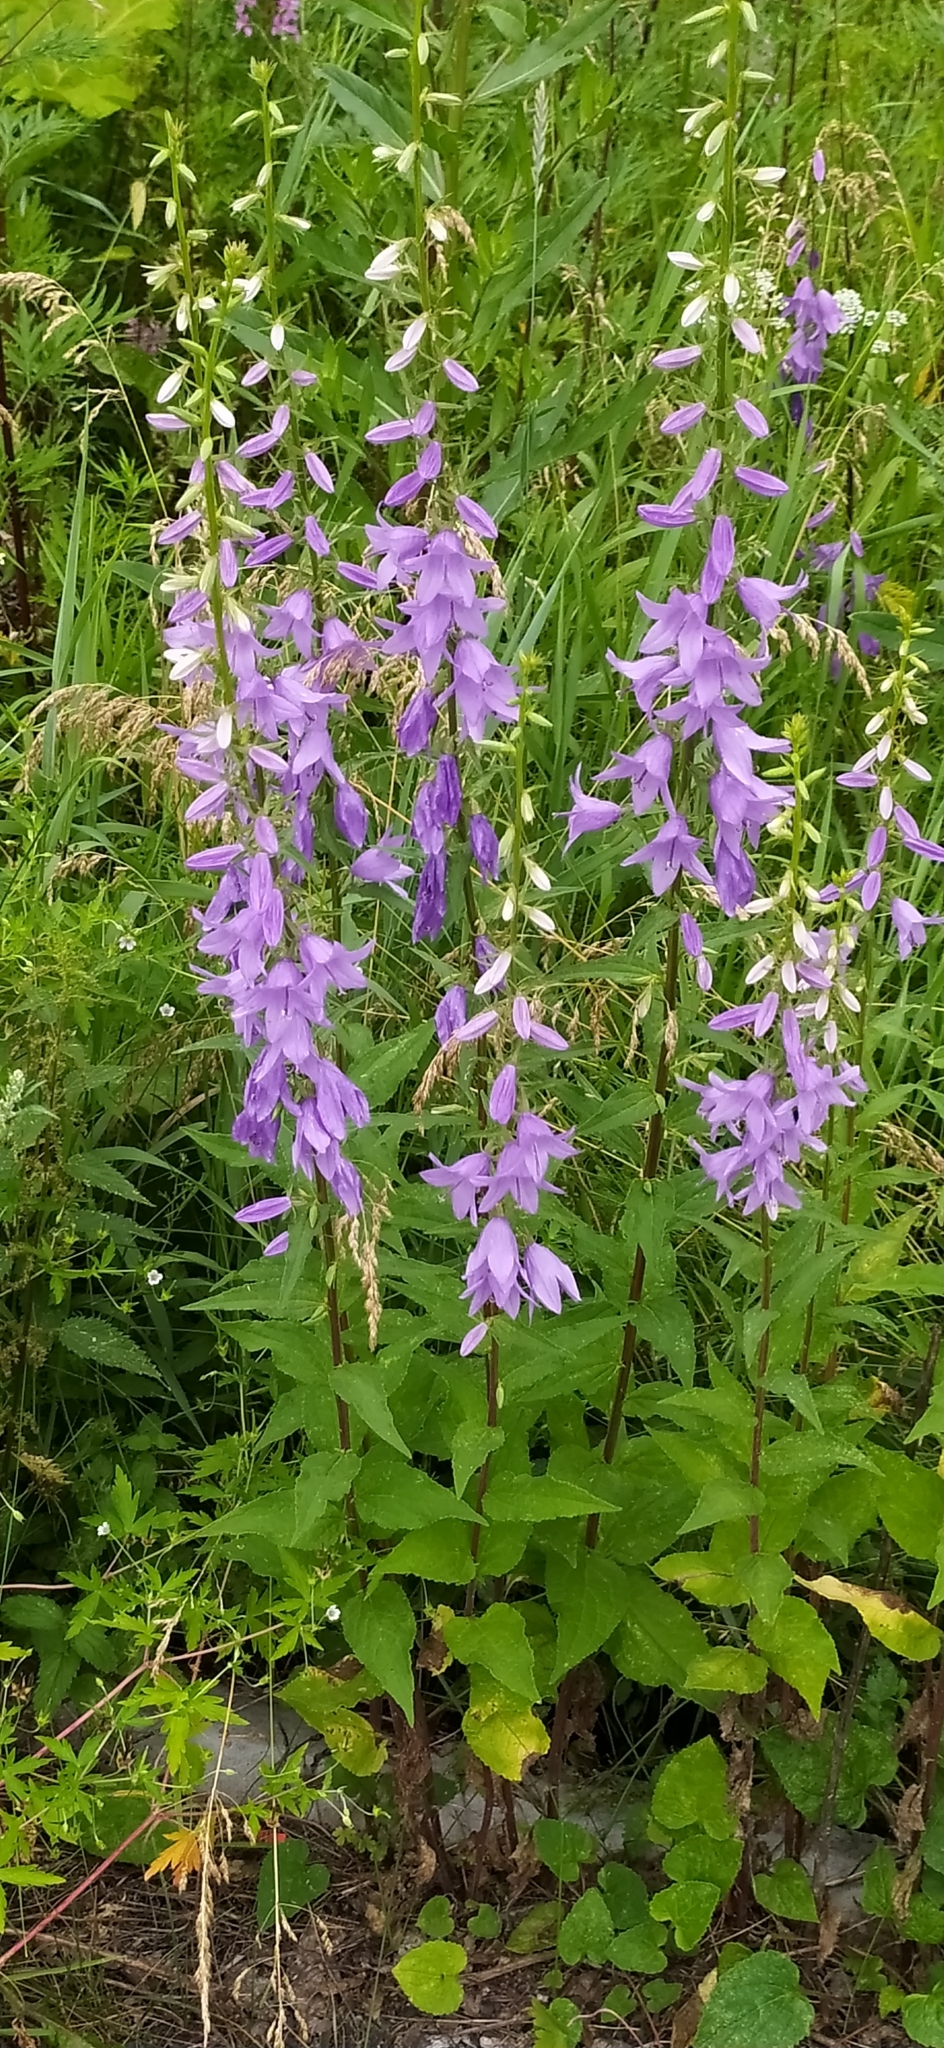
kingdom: Plantae
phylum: Tracheophyta
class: Magnoliopsida
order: Asterales
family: Campanulaceae
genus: Campanula
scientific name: Campanula rapunculoides
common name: Creeping bellflower
